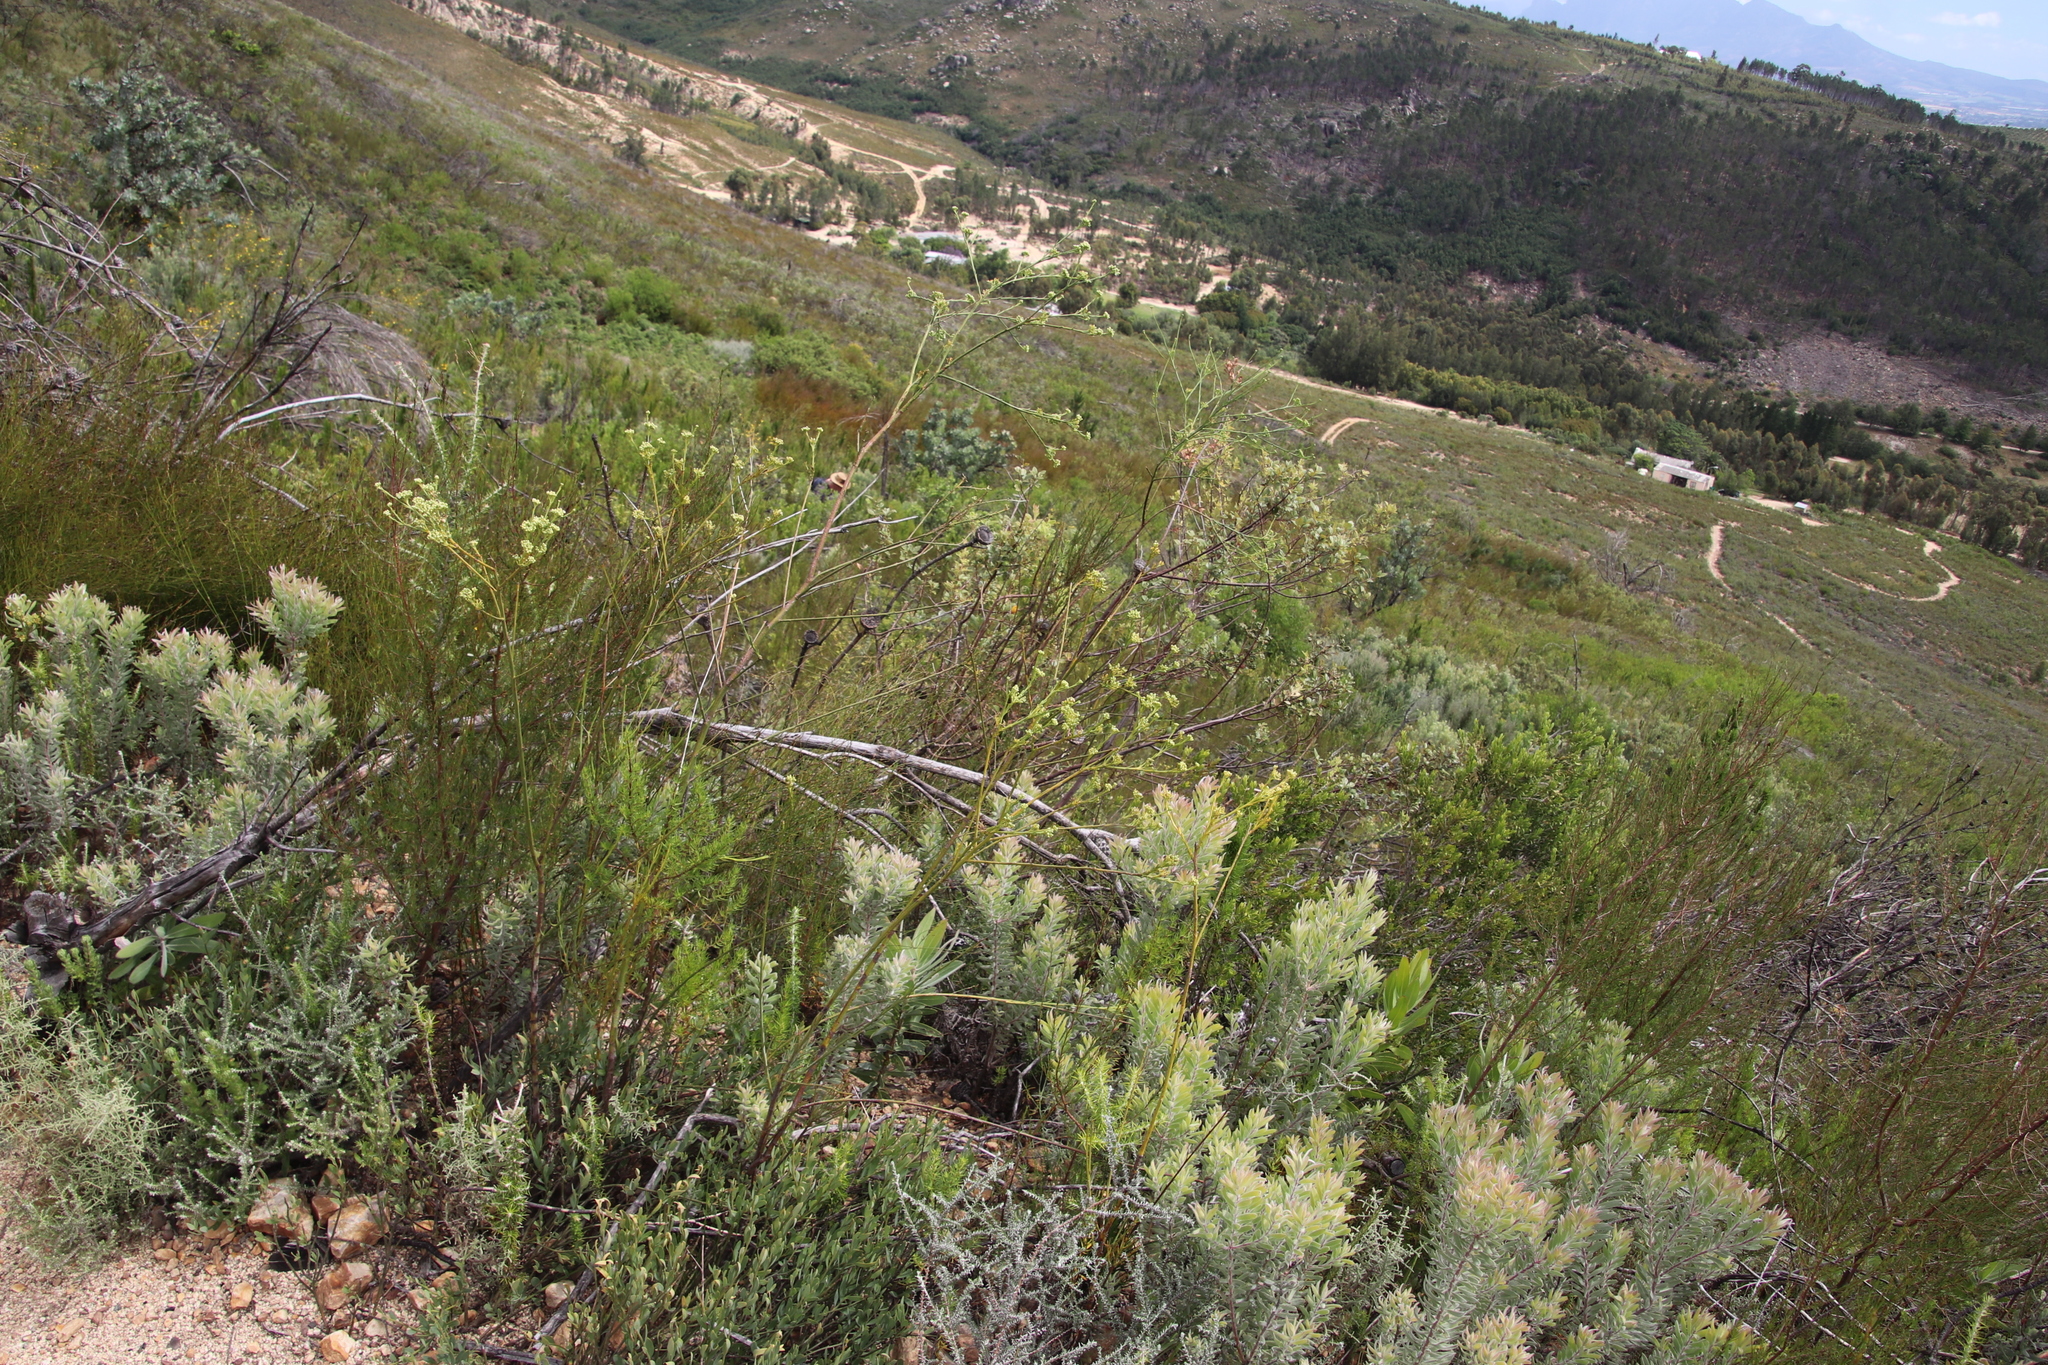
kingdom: Plantae
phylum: Tracheophyta
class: Magnoliopsida
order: Santalales
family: Thesiaceae
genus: Thesium
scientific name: Thesium strictum
